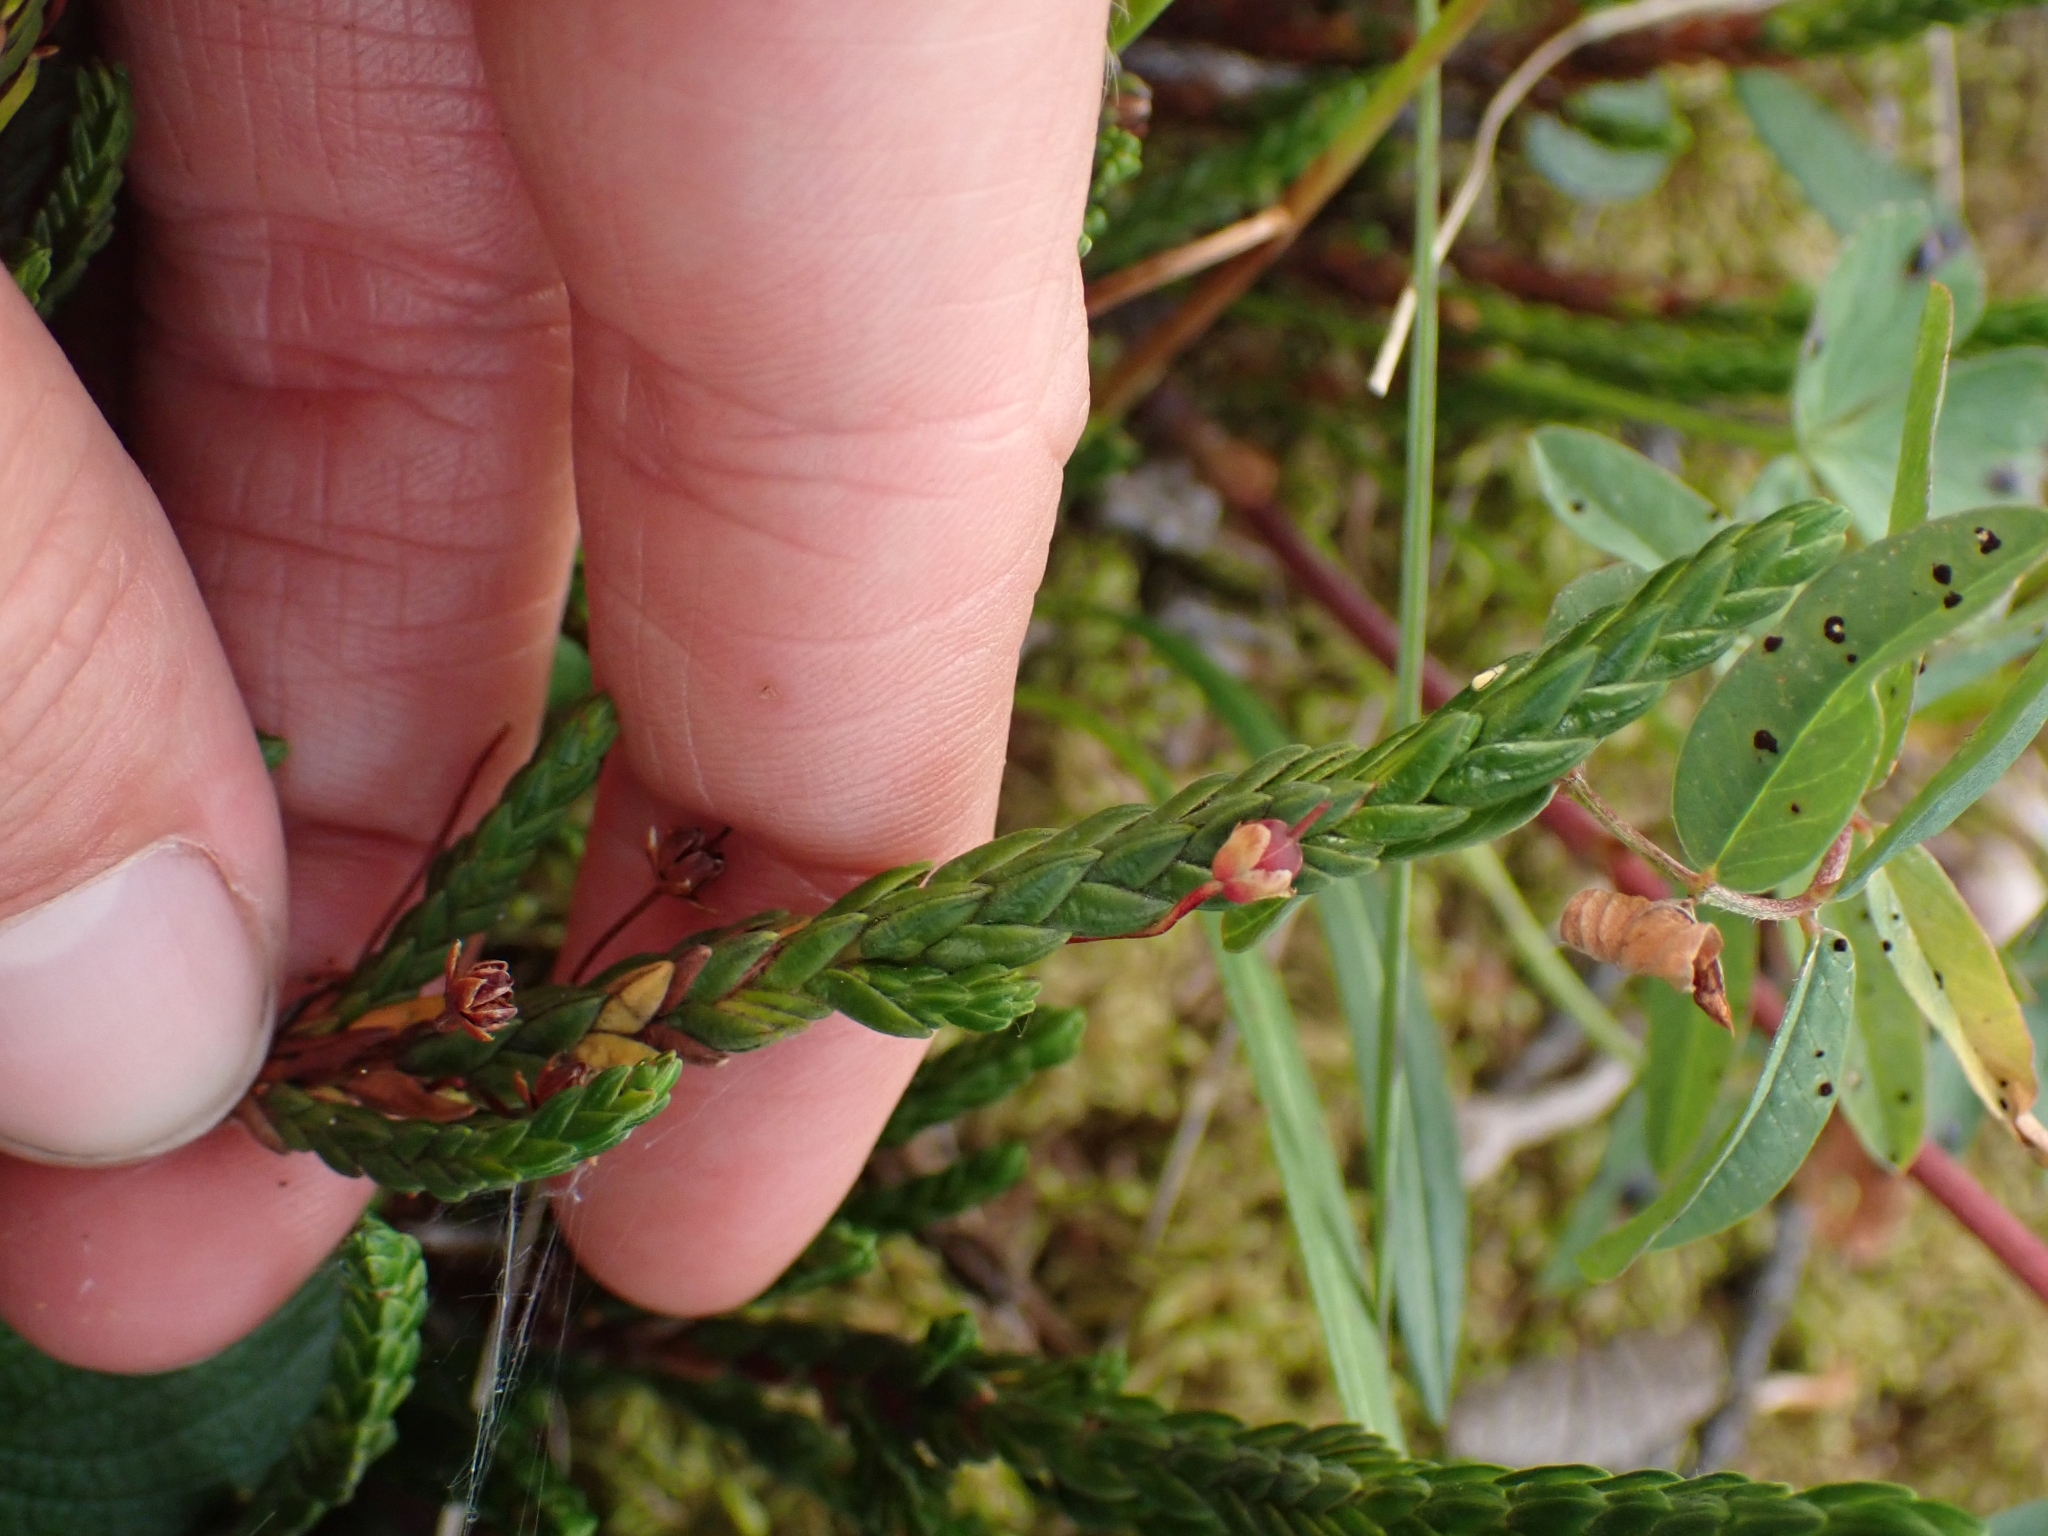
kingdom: Plantae
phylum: Tracheophyta
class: Magnoliopsida
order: Ericales
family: Ericaceae
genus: Cassiope
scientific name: Cassiope tetragona
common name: Arctic bell heather
